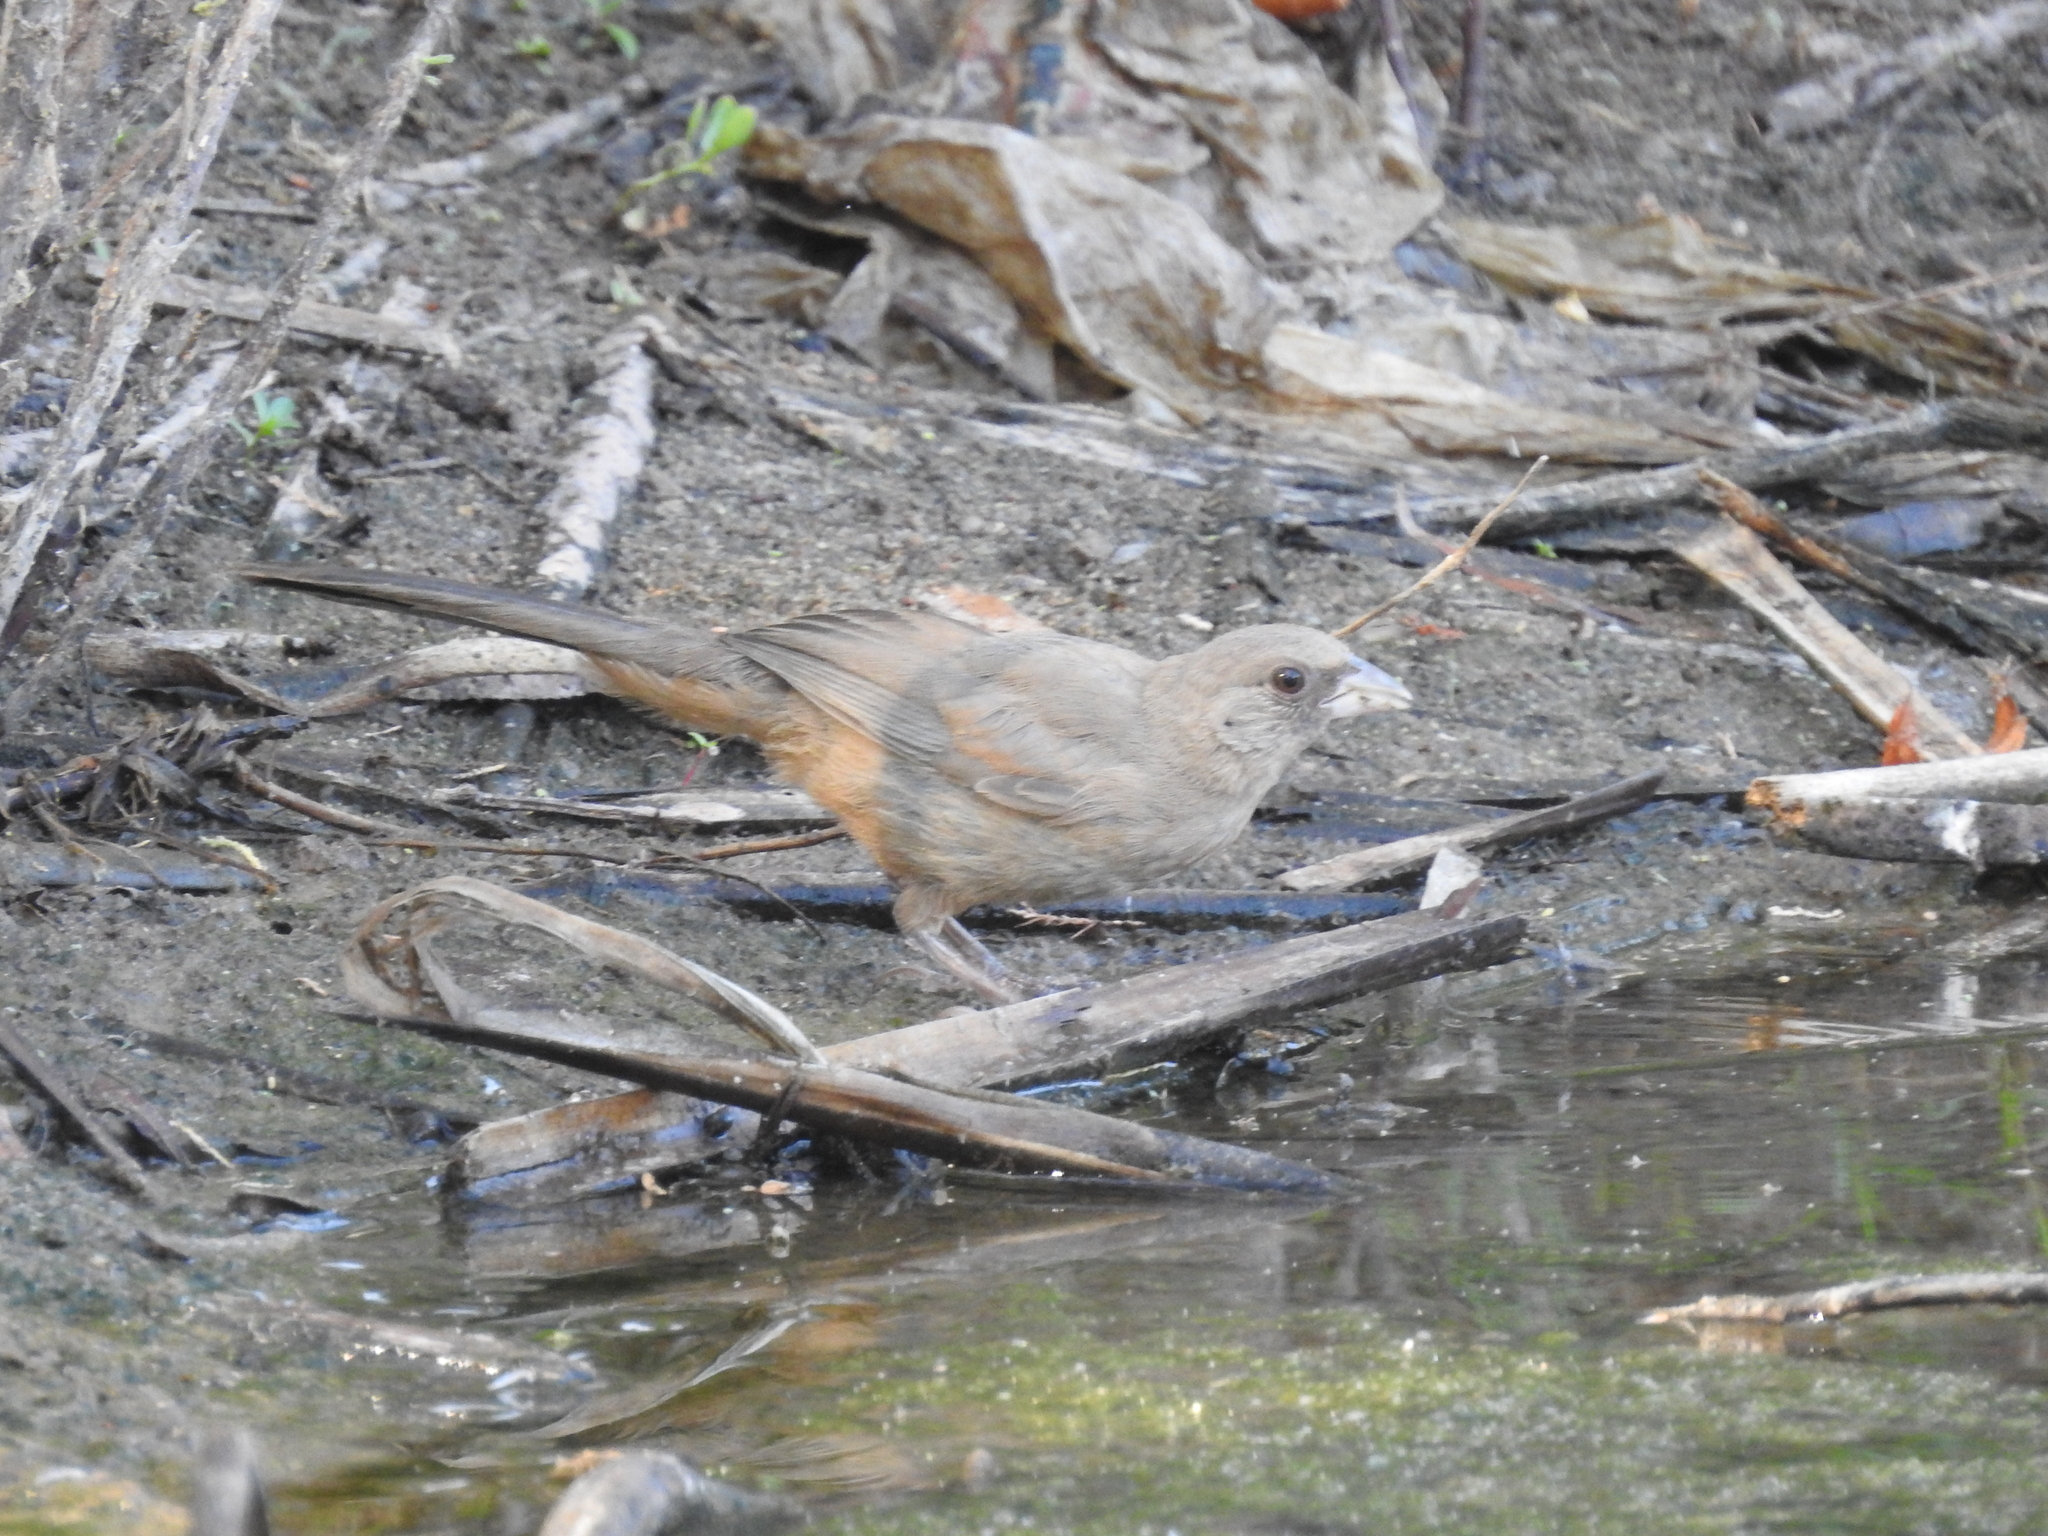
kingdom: Animalia
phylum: Chordata
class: Aves
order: Passeriformes
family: Passerellidae
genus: Melozone
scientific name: Melozone aberti
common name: Abert's towhee
